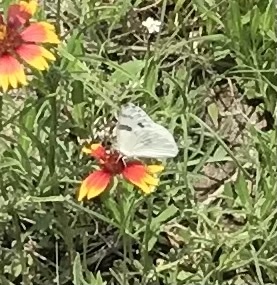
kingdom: Animalia
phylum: Arthropoda
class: Insecta
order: Lepidoptera
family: Pieridae
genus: Pontia
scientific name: Pontia protodice
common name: Checkered white
